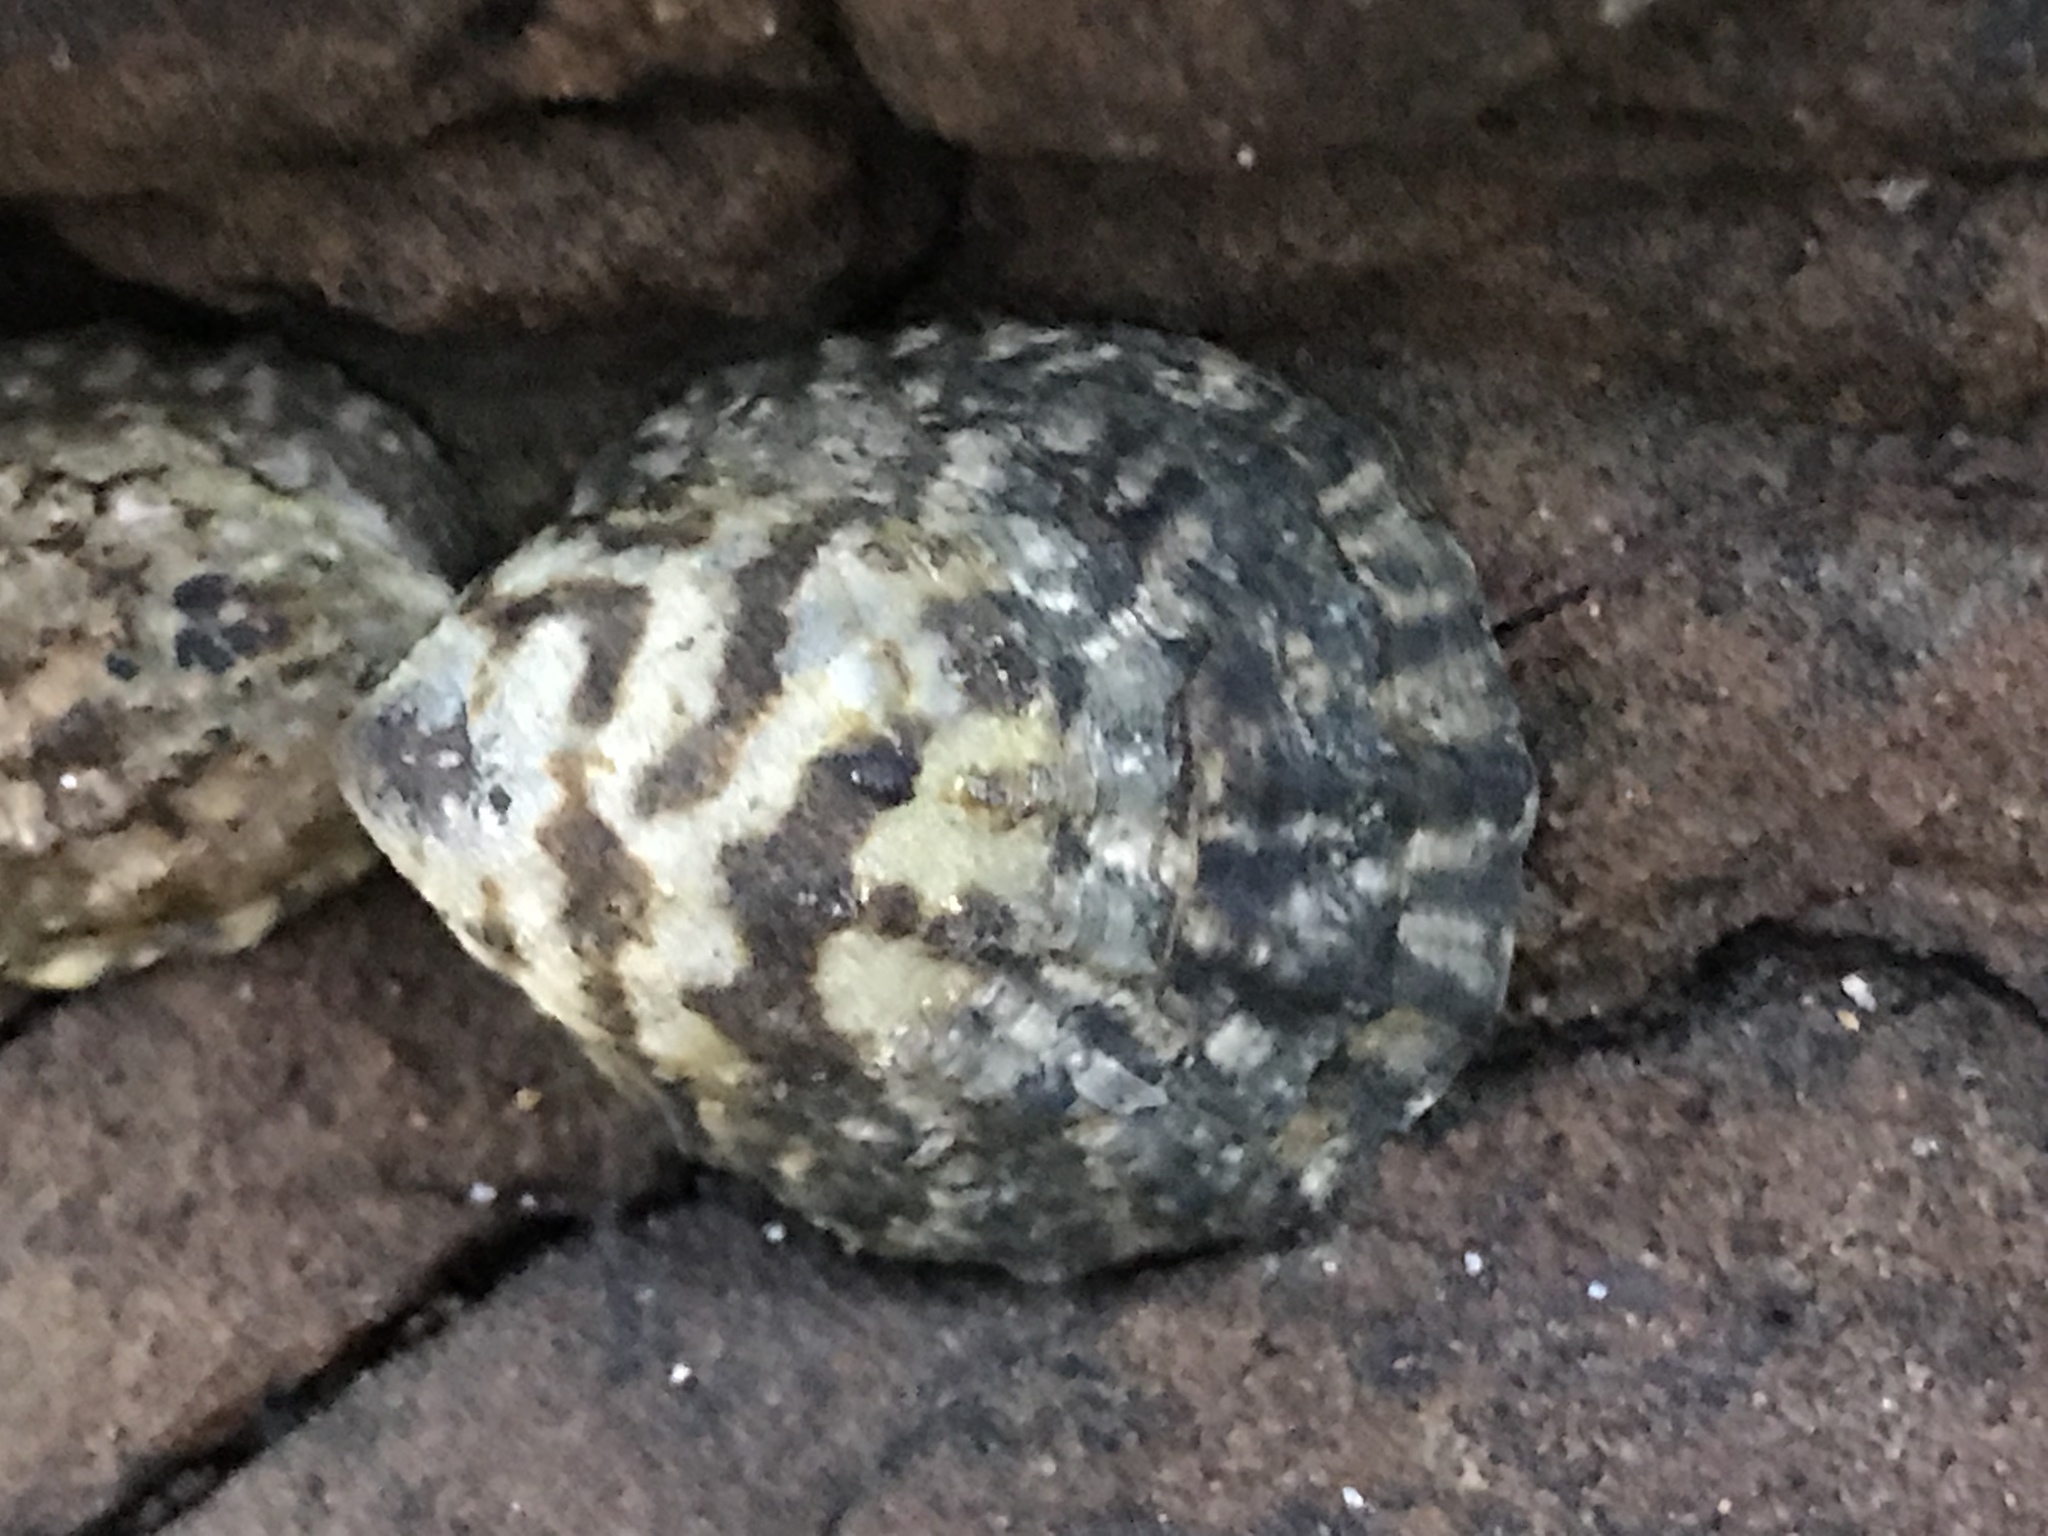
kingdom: Animalia
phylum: Mollusca
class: Gastropoda
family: Lottiidae
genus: Lottia
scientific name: Lottia digitalis
